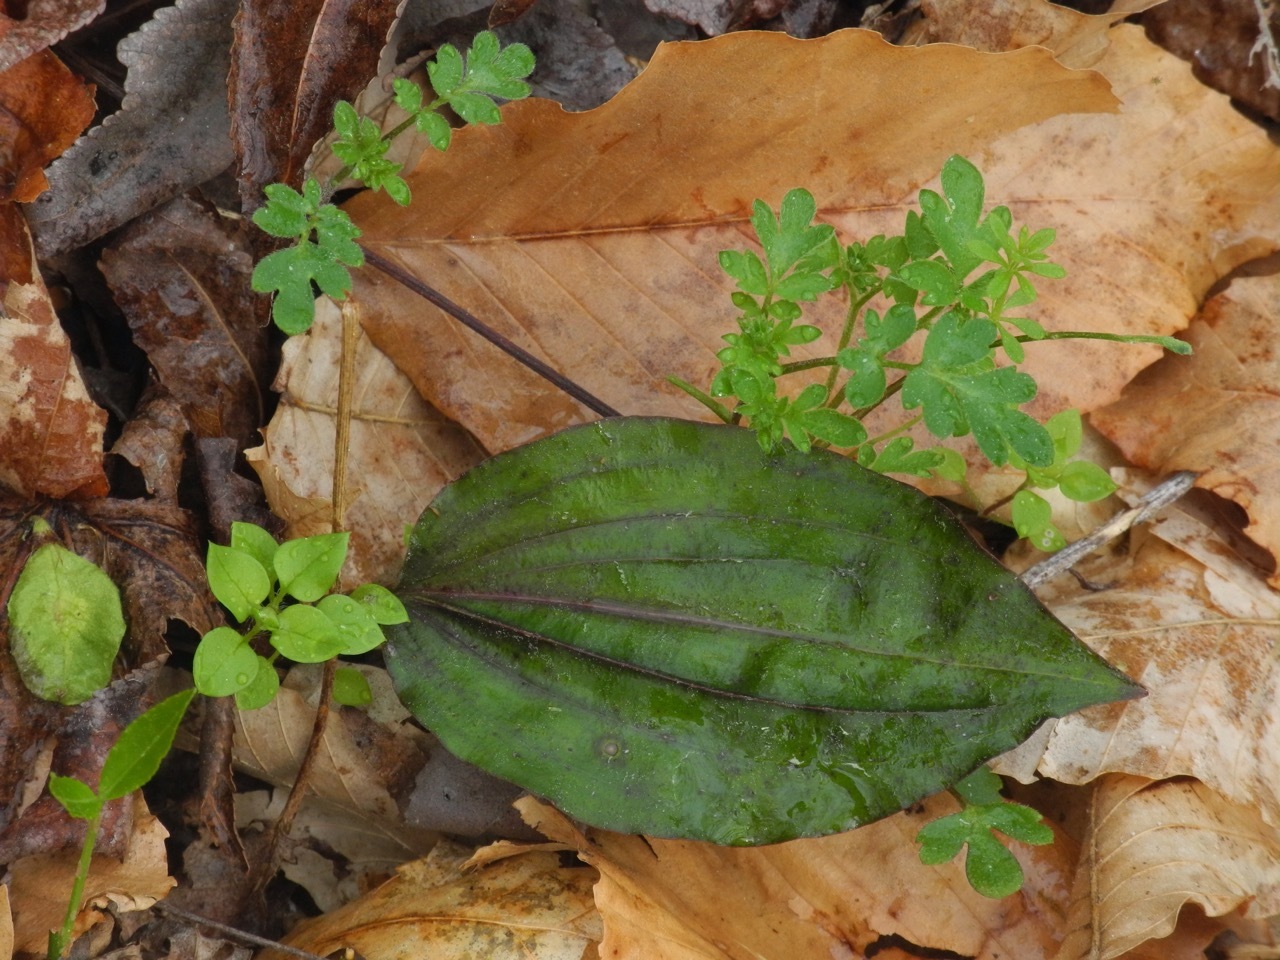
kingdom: Plantae
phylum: Tracheophyta
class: Liliopsida
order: Asparagales
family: Orchidaceae
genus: Tipularia
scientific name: Tipularia discolor
